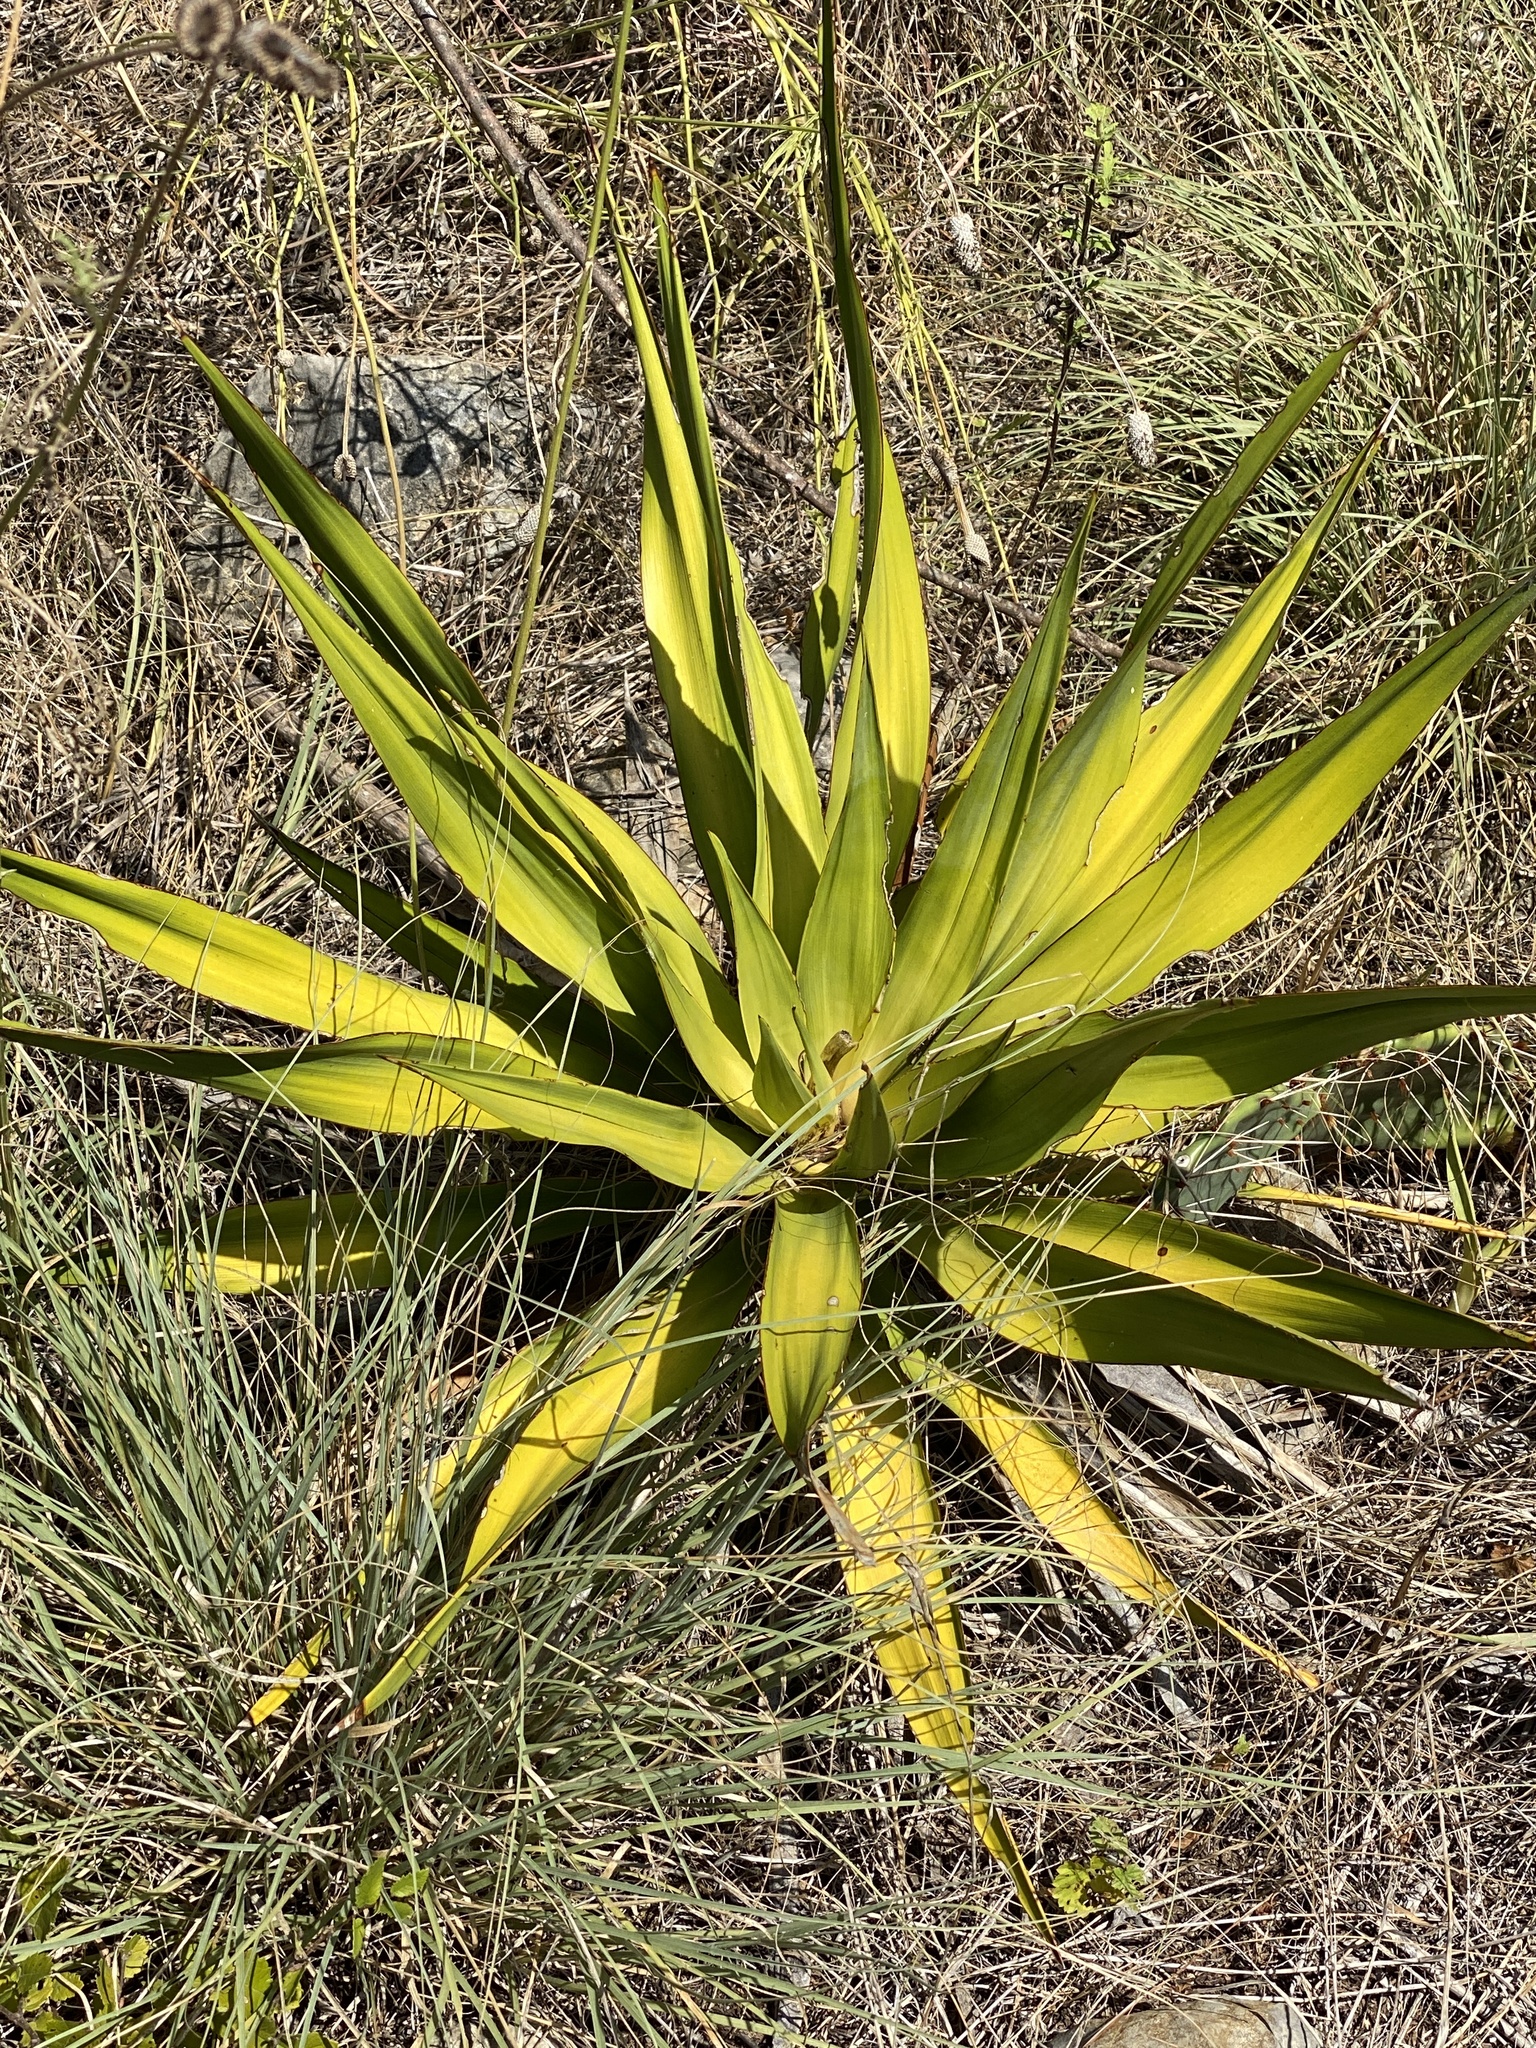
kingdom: Plantae
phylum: Tracheophyta
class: Liliopsida
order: Asparagales
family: Asparagaceae
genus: Yucca
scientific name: Yucca rupicola
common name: Twisted-leaf spanish-dagger
